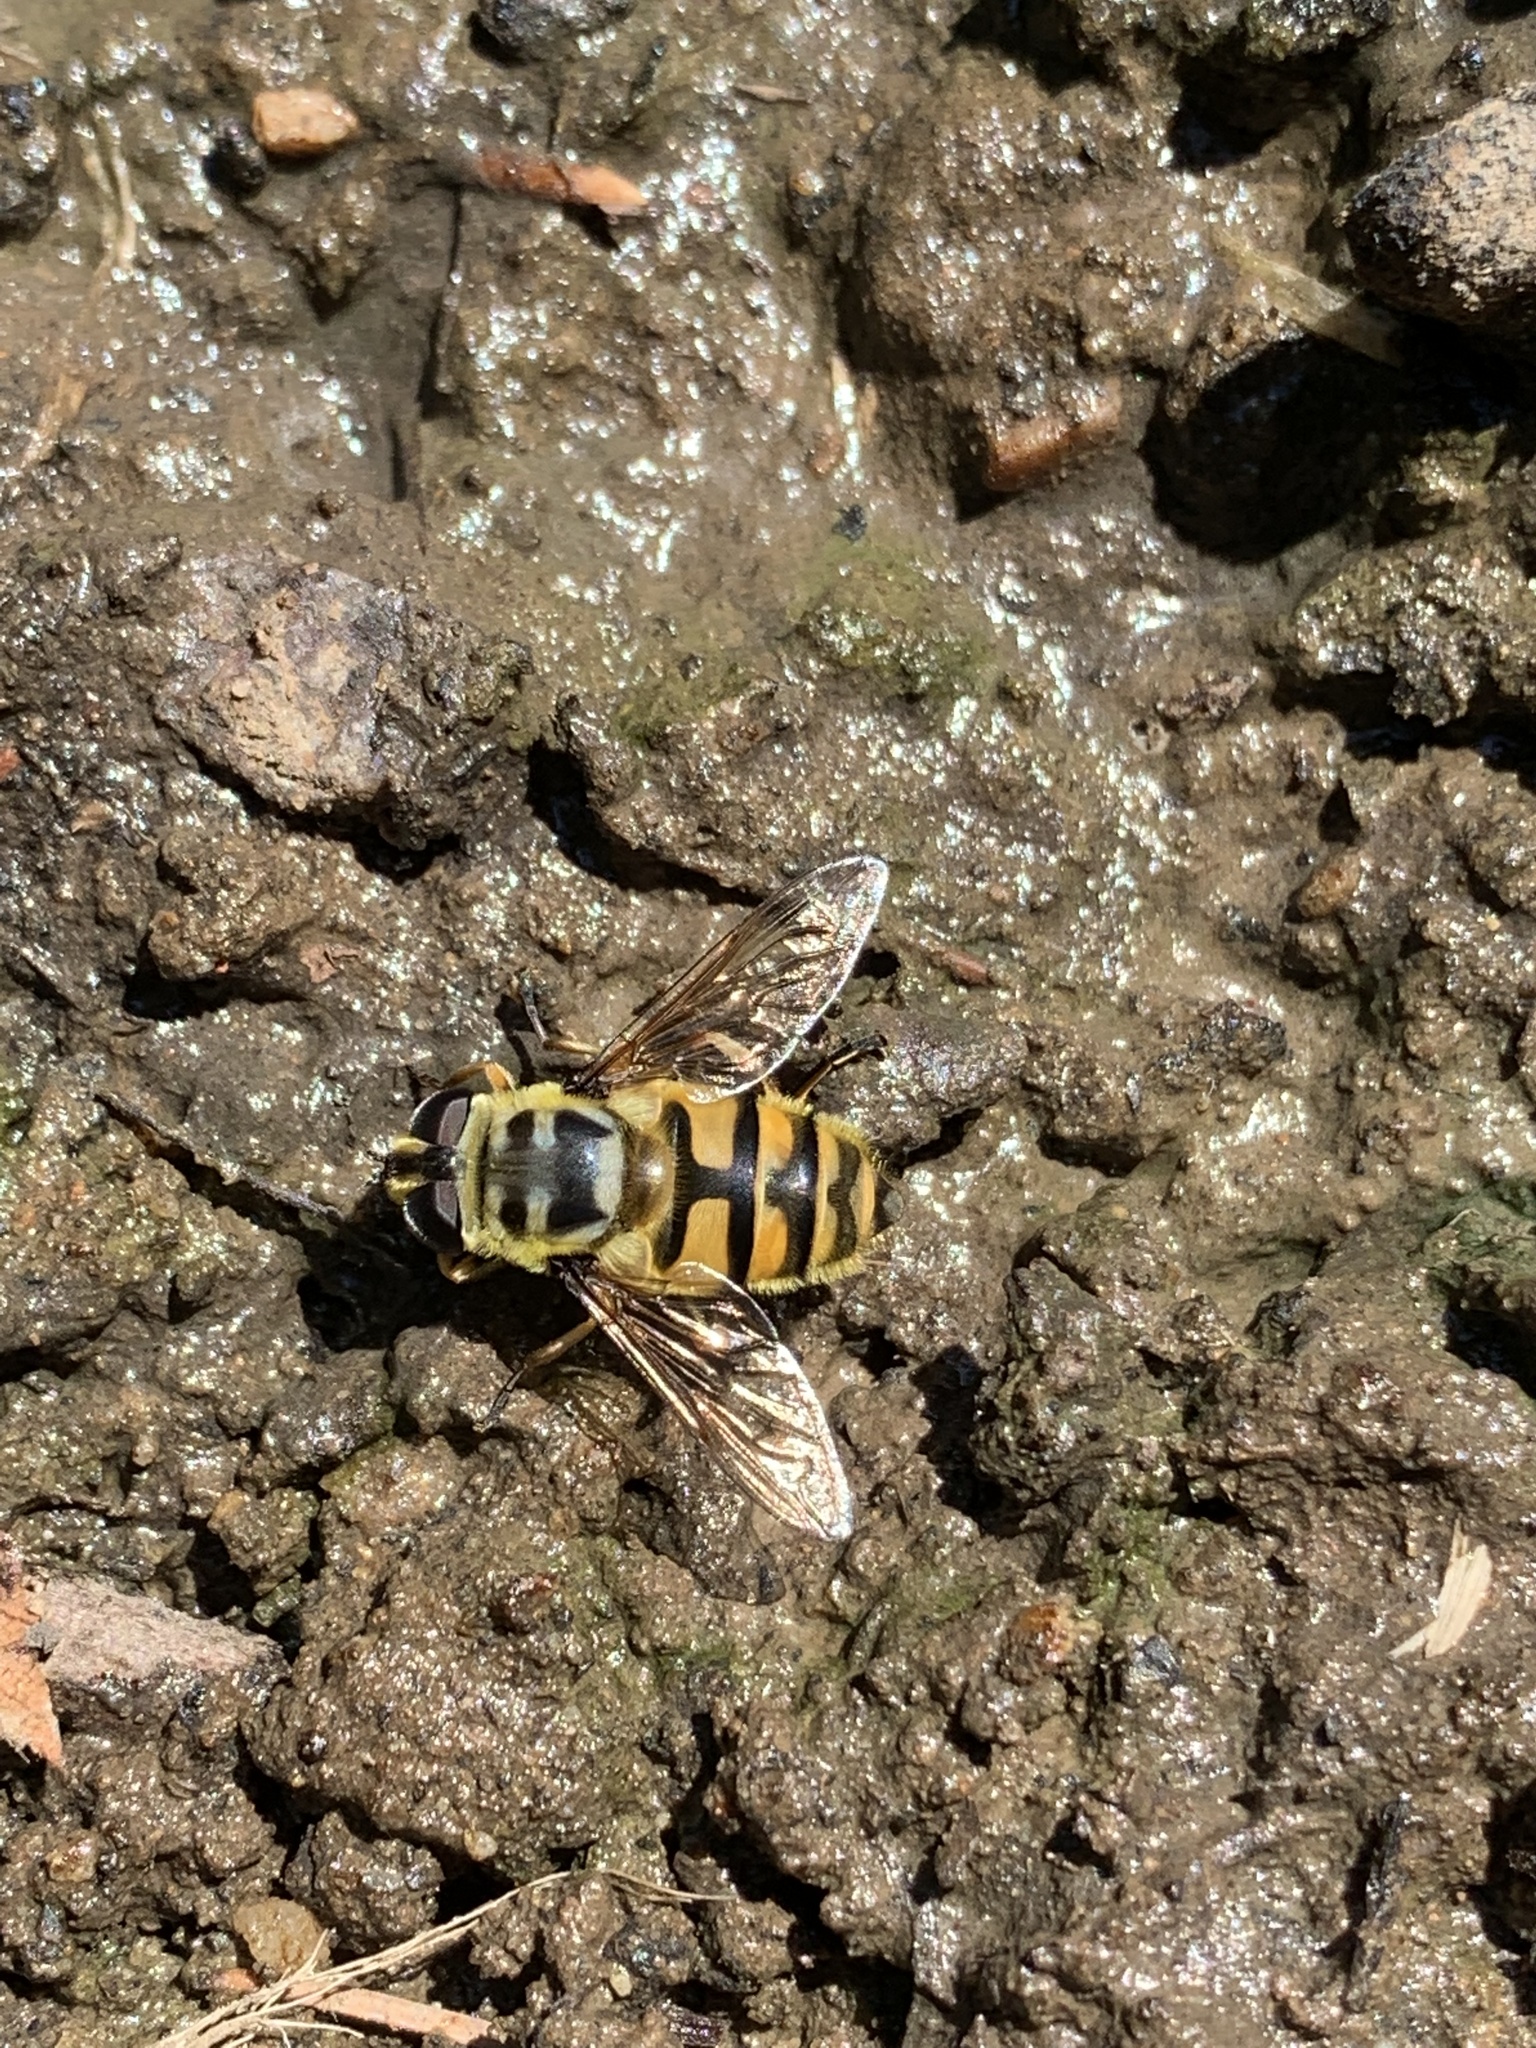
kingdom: Animalia
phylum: Arthropoda
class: Insecta
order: Diptera
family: Syrphidae
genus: Myathropa
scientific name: Myathropa florea
